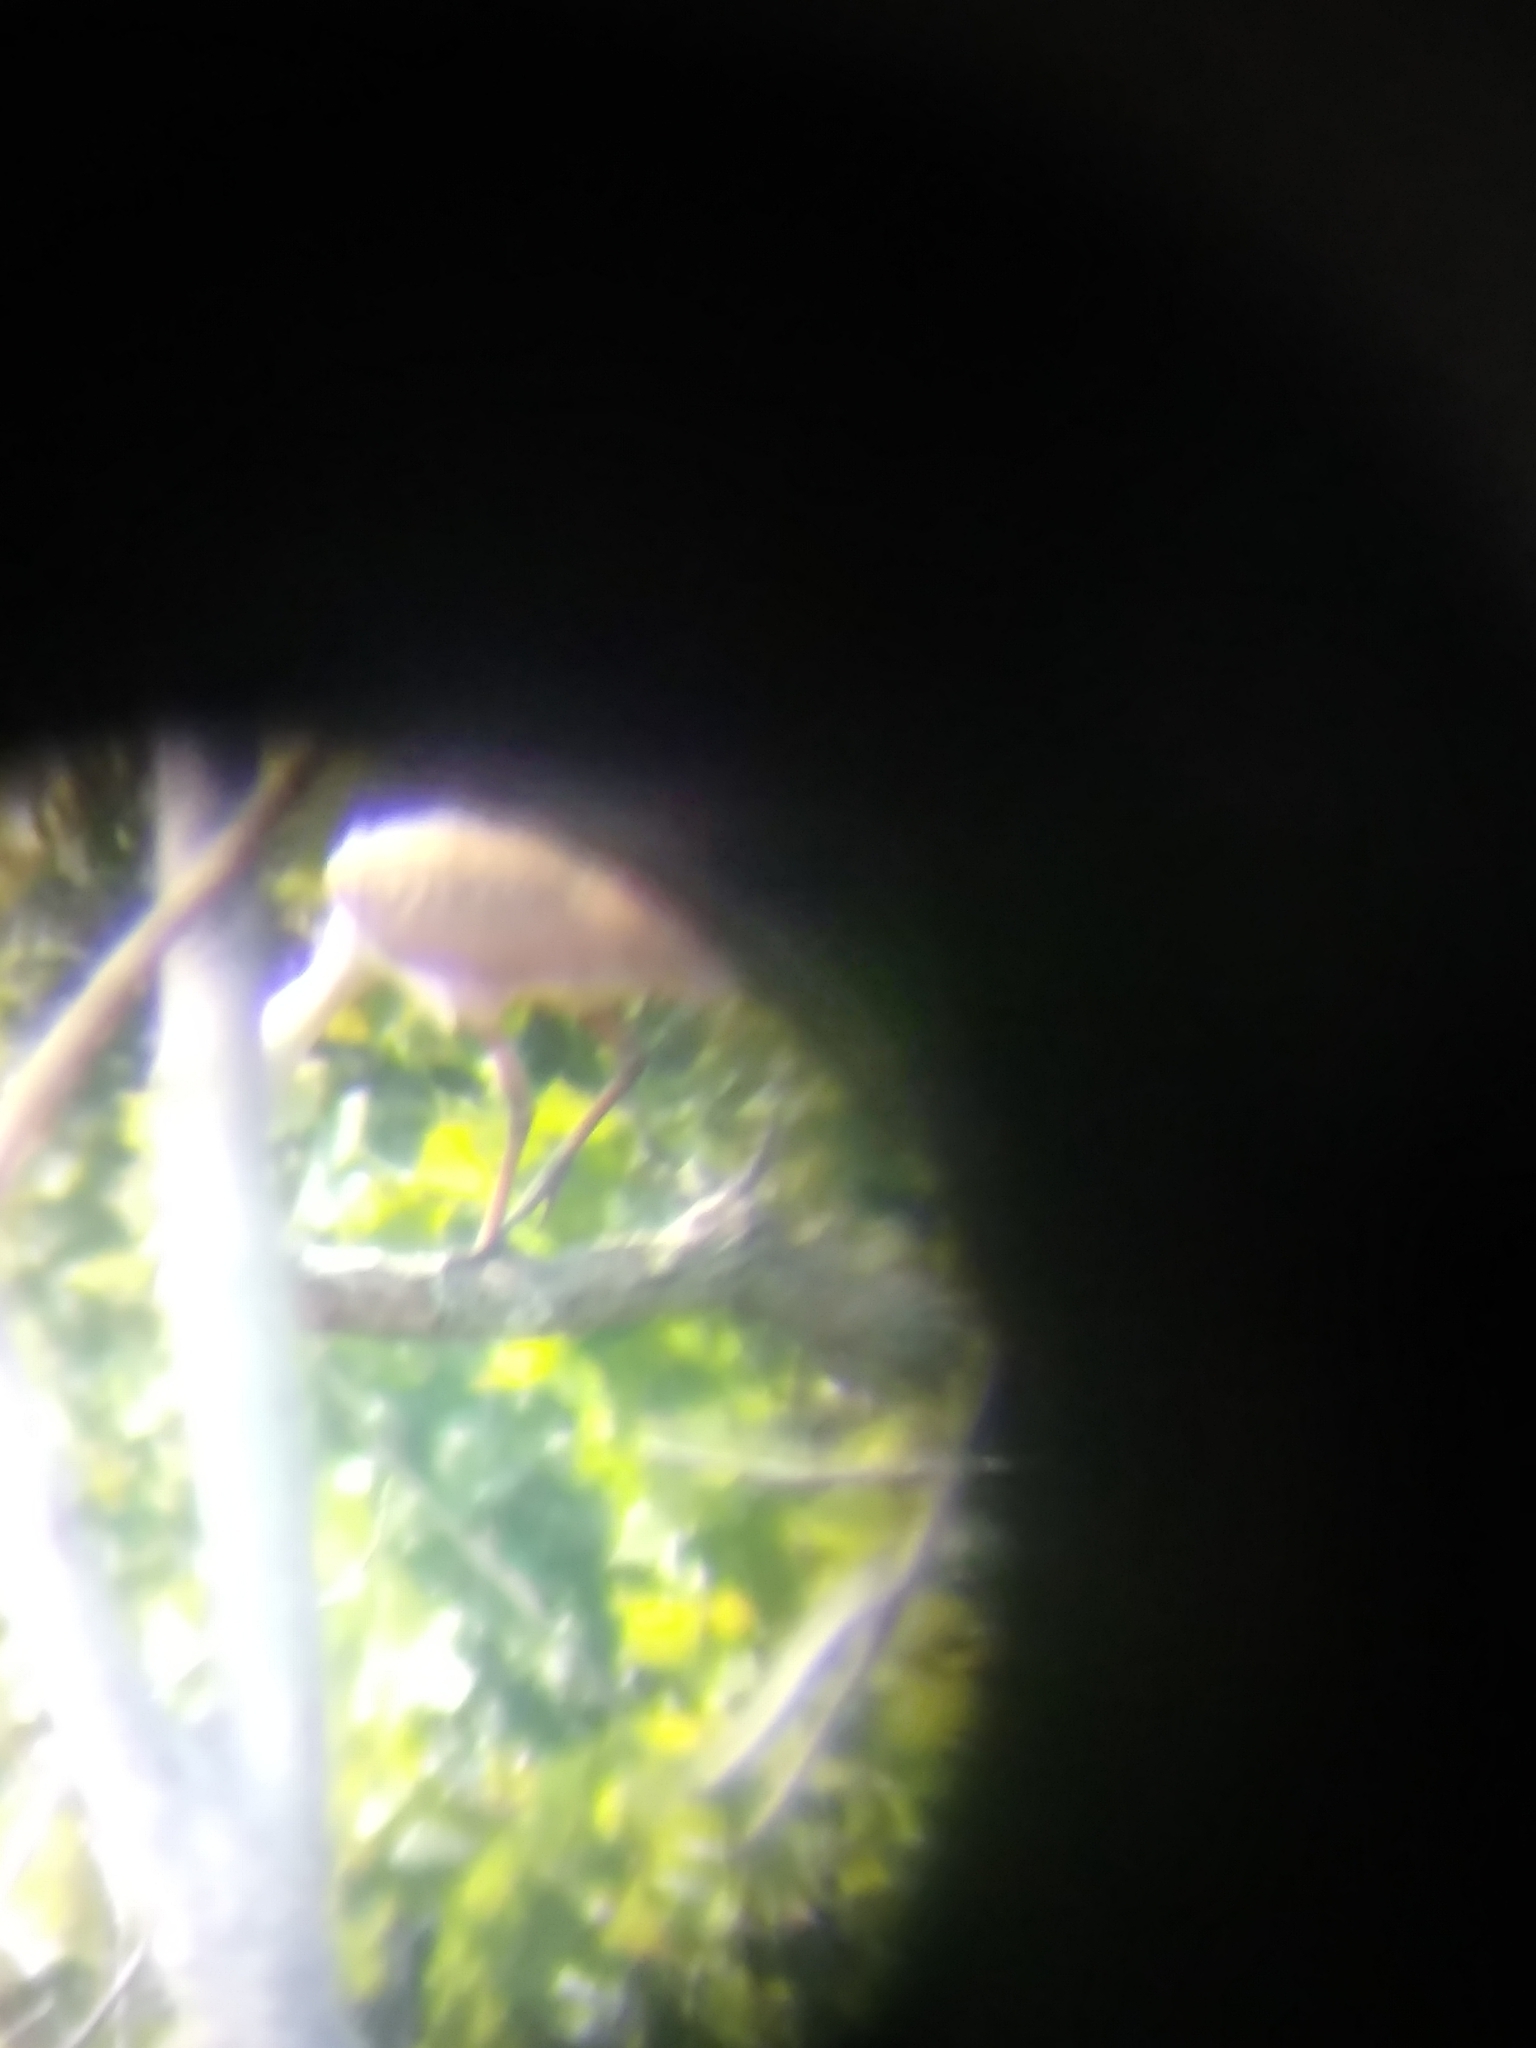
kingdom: Animalia
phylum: Chordata
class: Aves
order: Pelecaniformes
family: Threskiornithidae
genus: Platalea
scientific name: Platalea ajaja
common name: Roseate spoonbill
